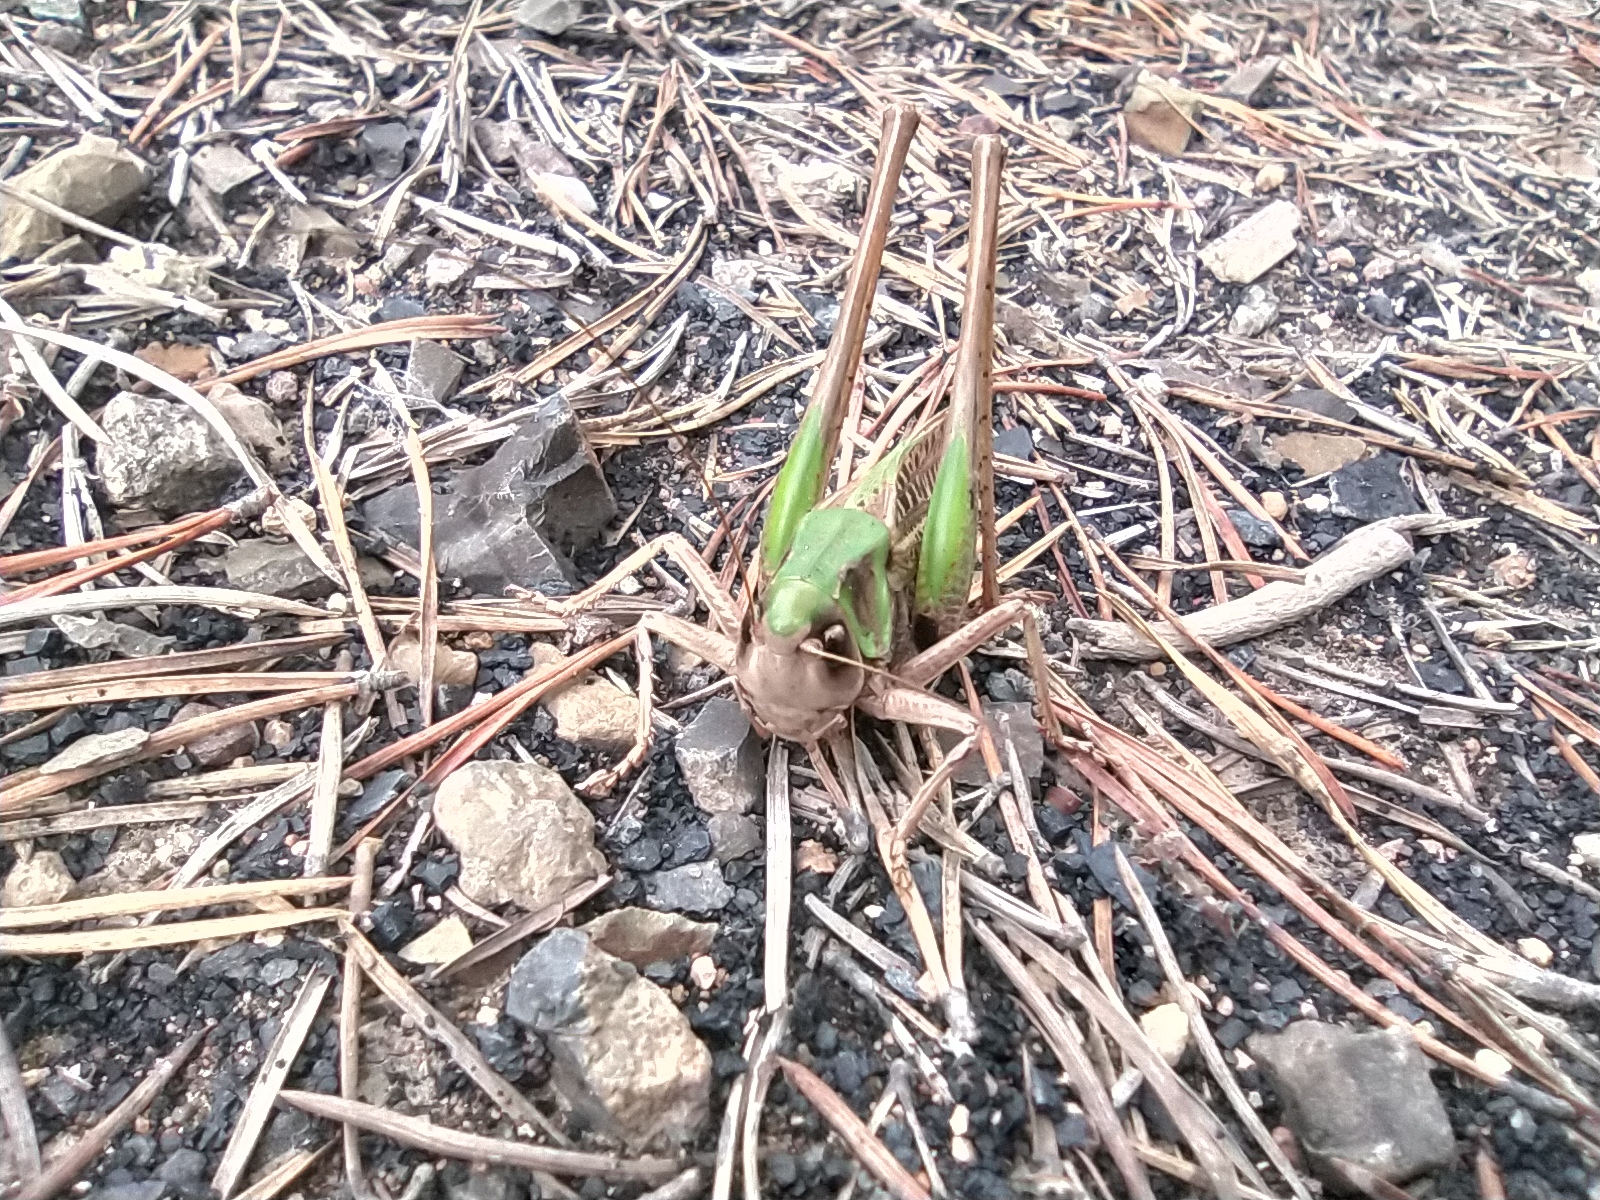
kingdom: Animalia
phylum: Arthropoda
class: Insecta
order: Orthoptera
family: Tettigoniidae
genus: Decticus
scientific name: Decticus verrucivorus
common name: Wart-biter
